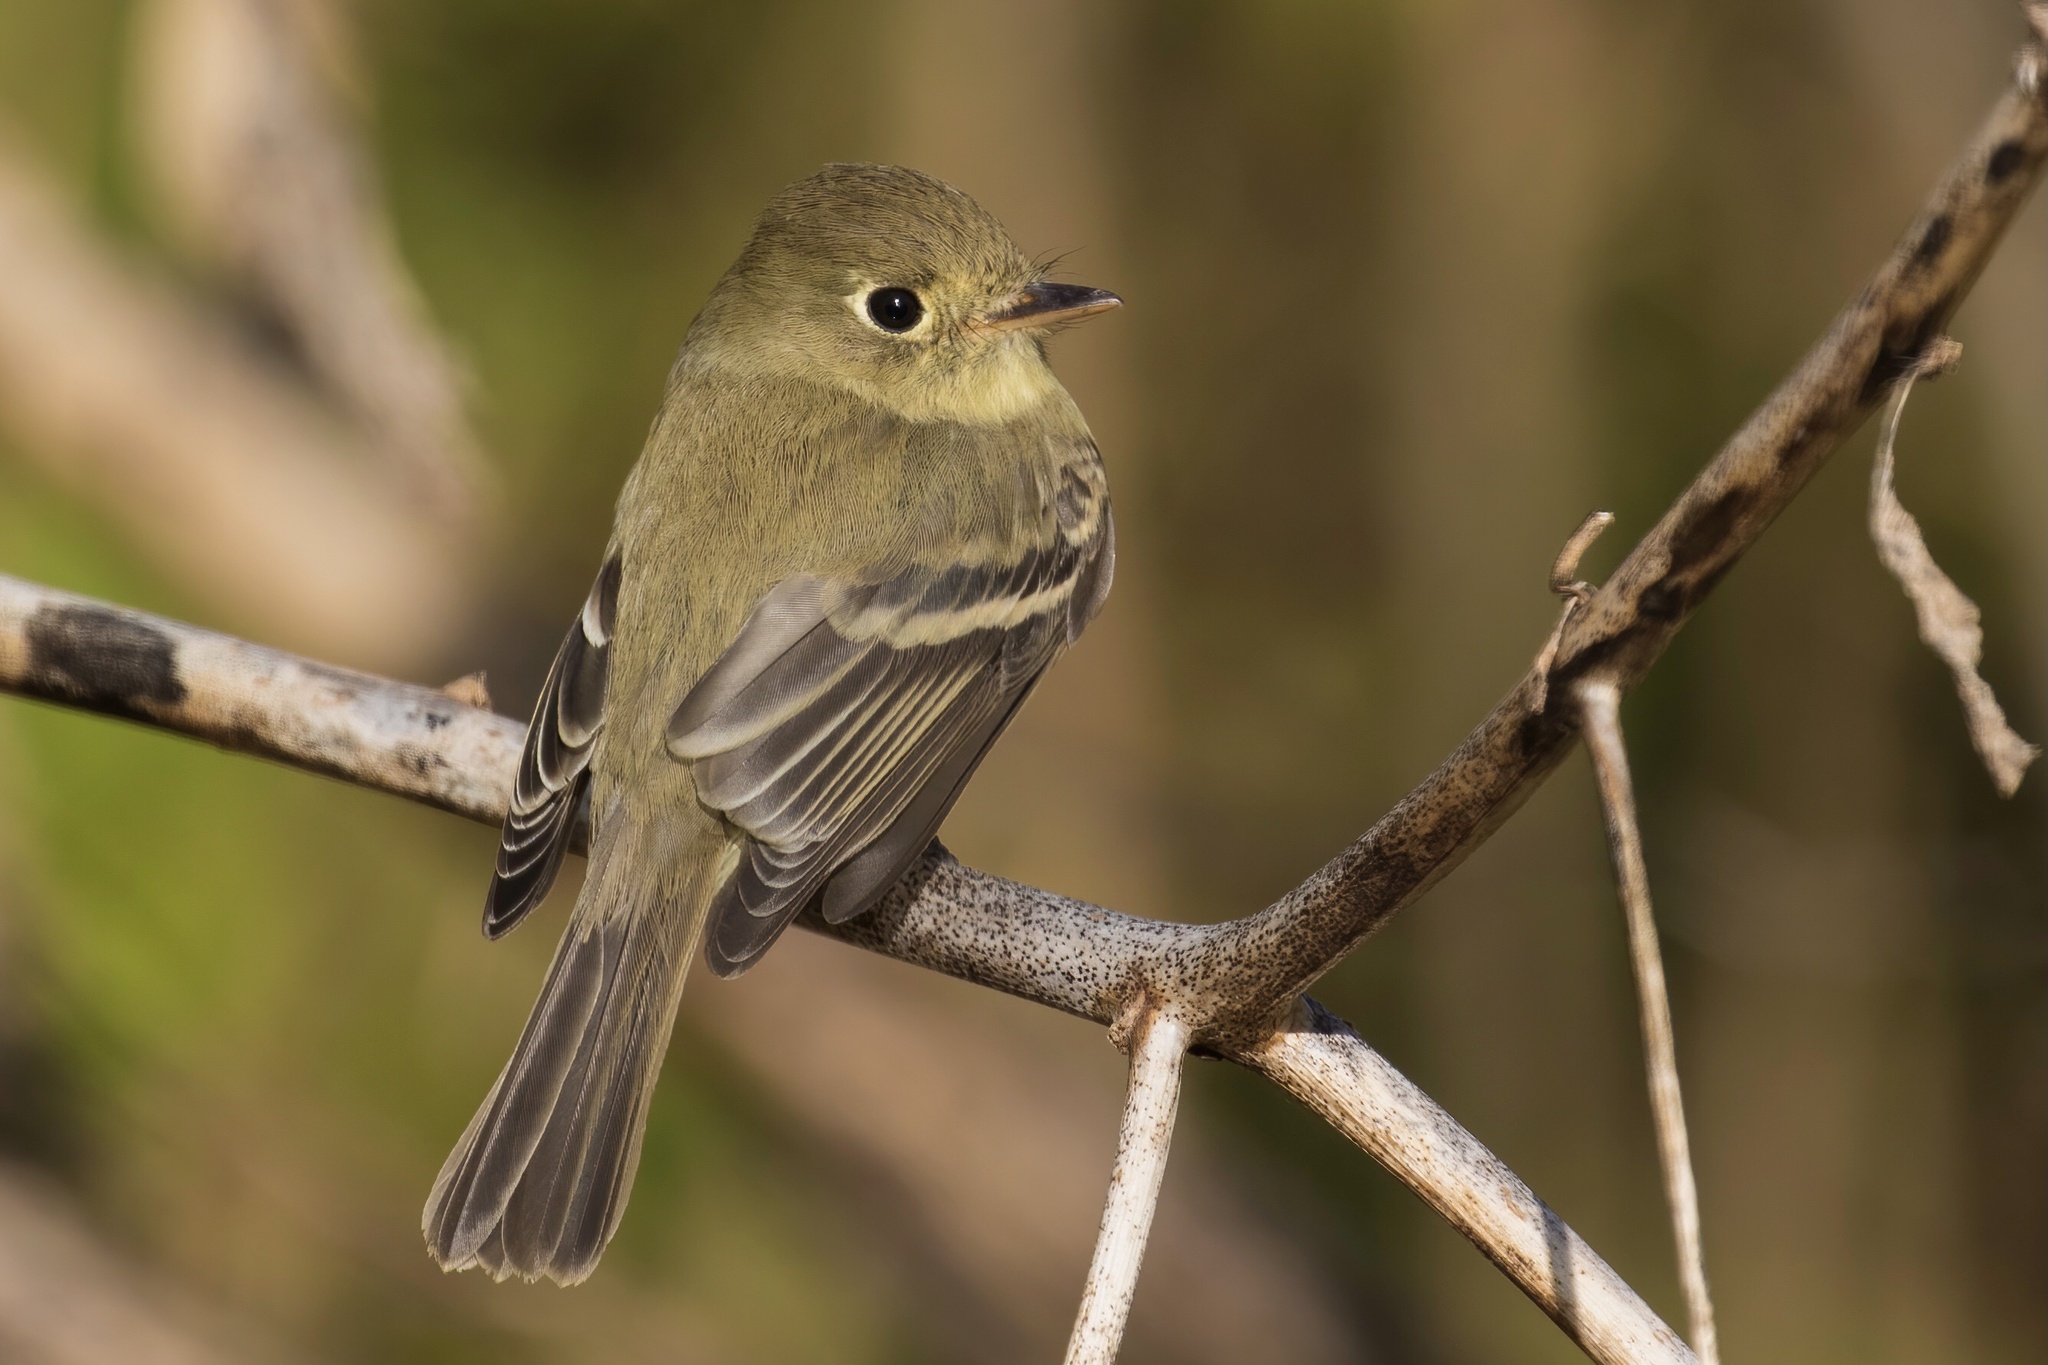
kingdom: Animalia
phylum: Chordata
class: Aves
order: Passeriformes
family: Tyrannidae
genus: Empidonax
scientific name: Empidonax difficilis
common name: Pacific-slope flycatcher
